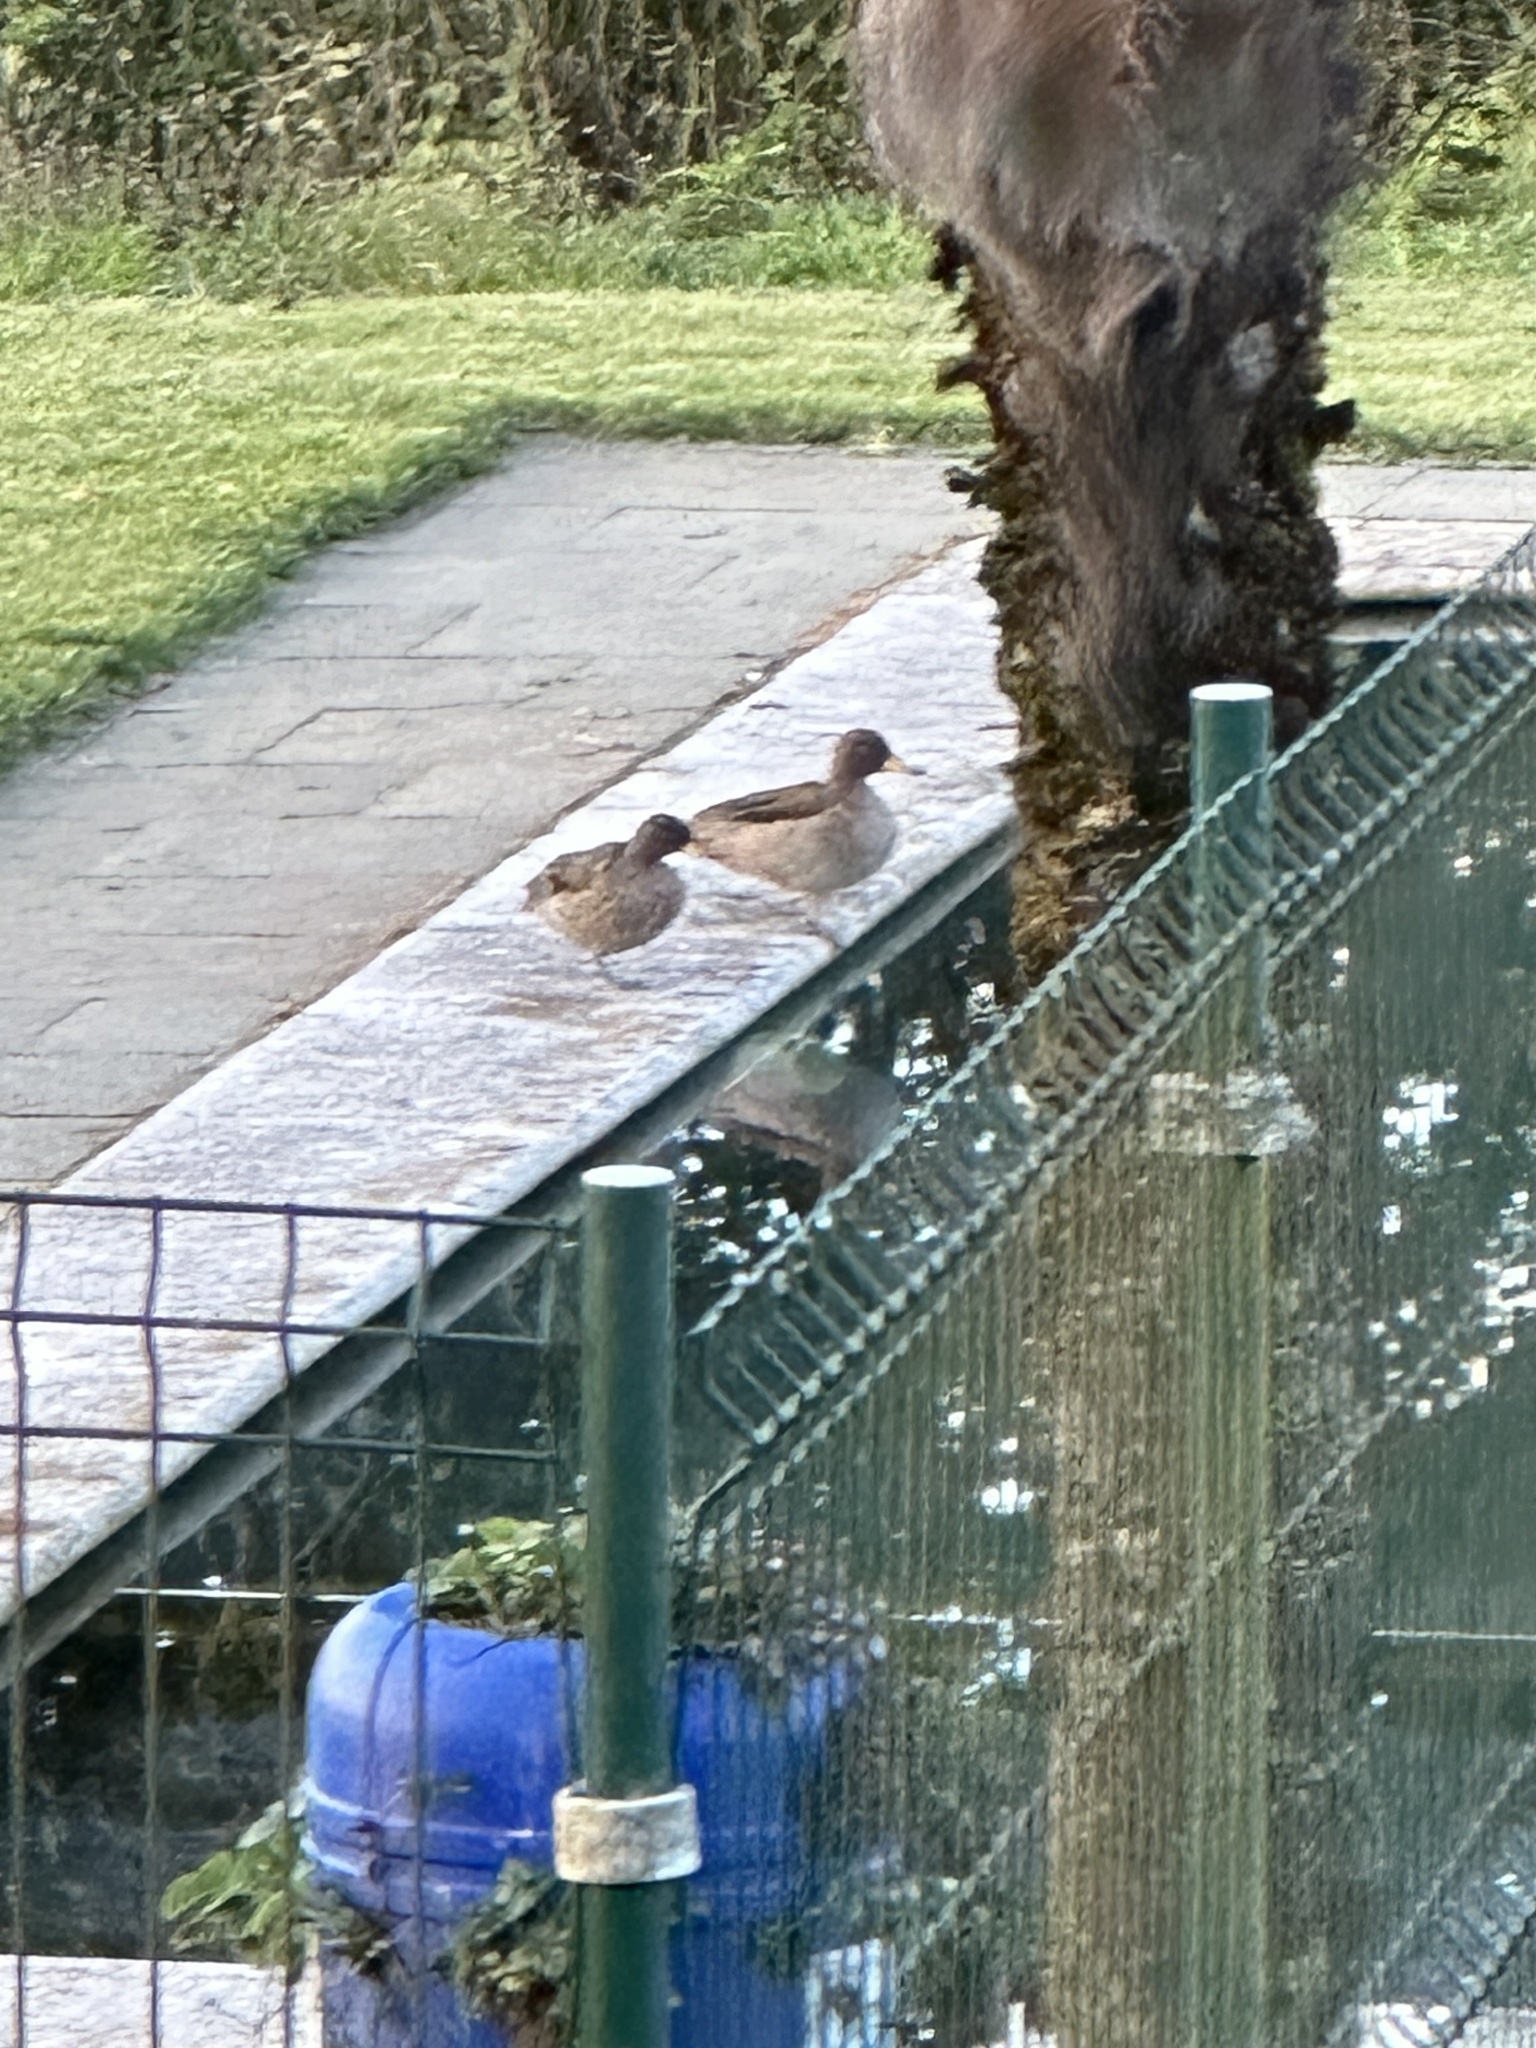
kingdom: Animalia
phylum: Chordata
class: Aves
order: Anseriformes
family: Anatidae
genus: Anas
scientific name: Anas flavirostris
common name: Yellow-billed teal
